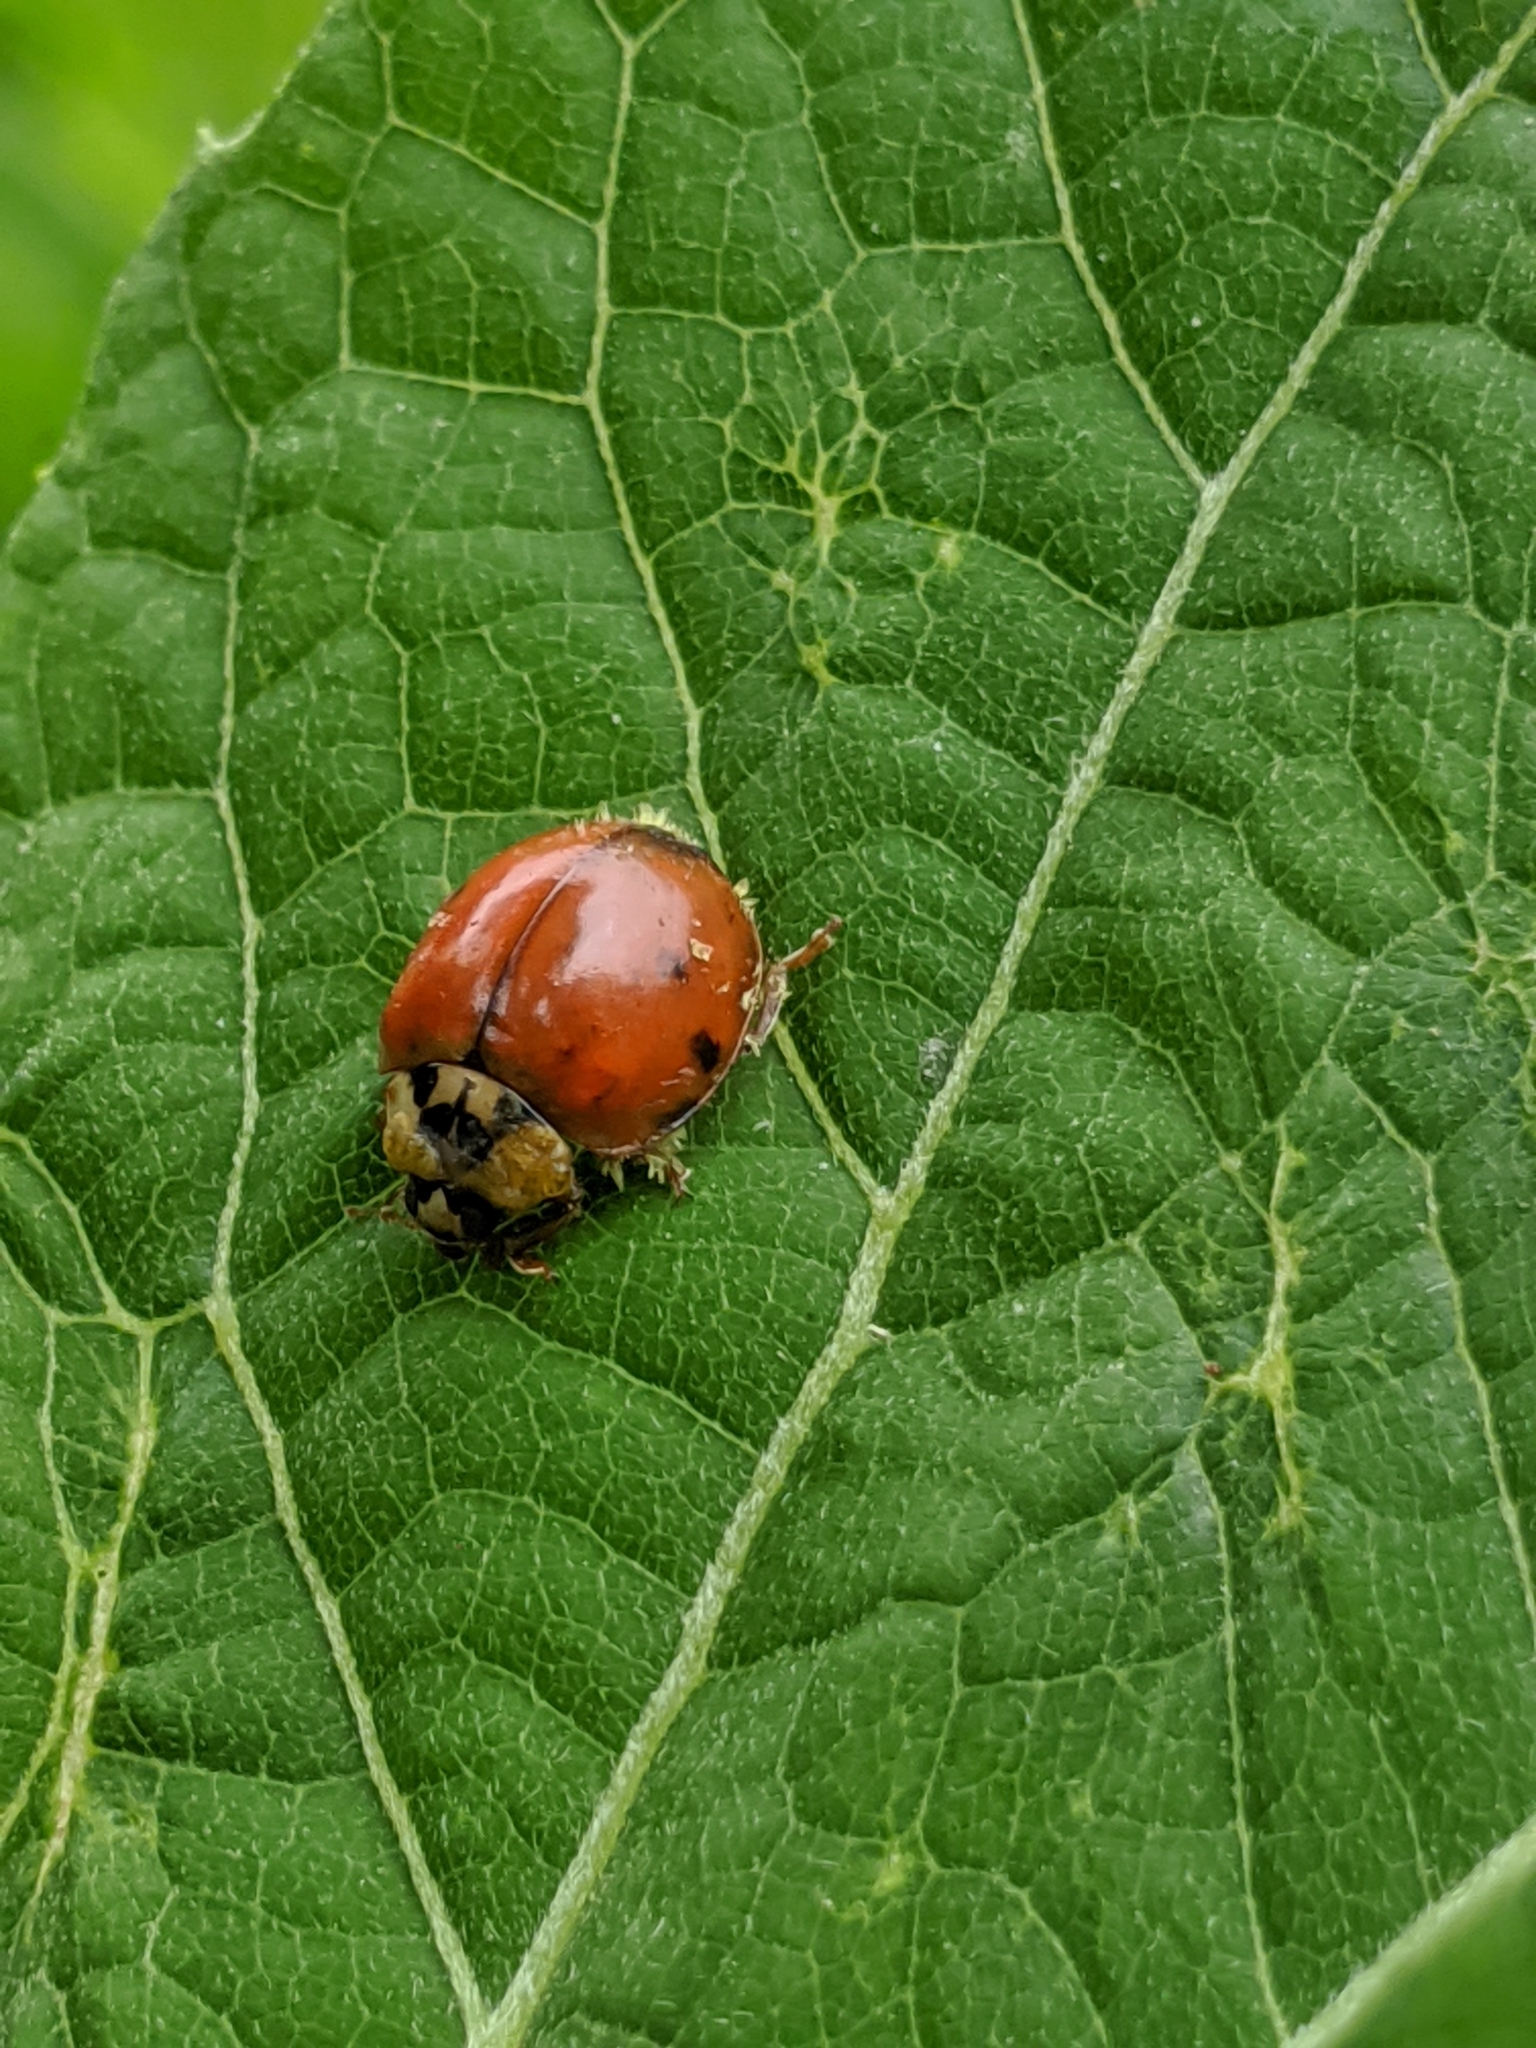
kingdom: Animalia
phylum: Arthropoda
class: Insecta
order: Coleoptera
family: Coccinellidae
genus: Harmonia
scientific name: Harmonia axyridis
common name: Harlequin ladybird
